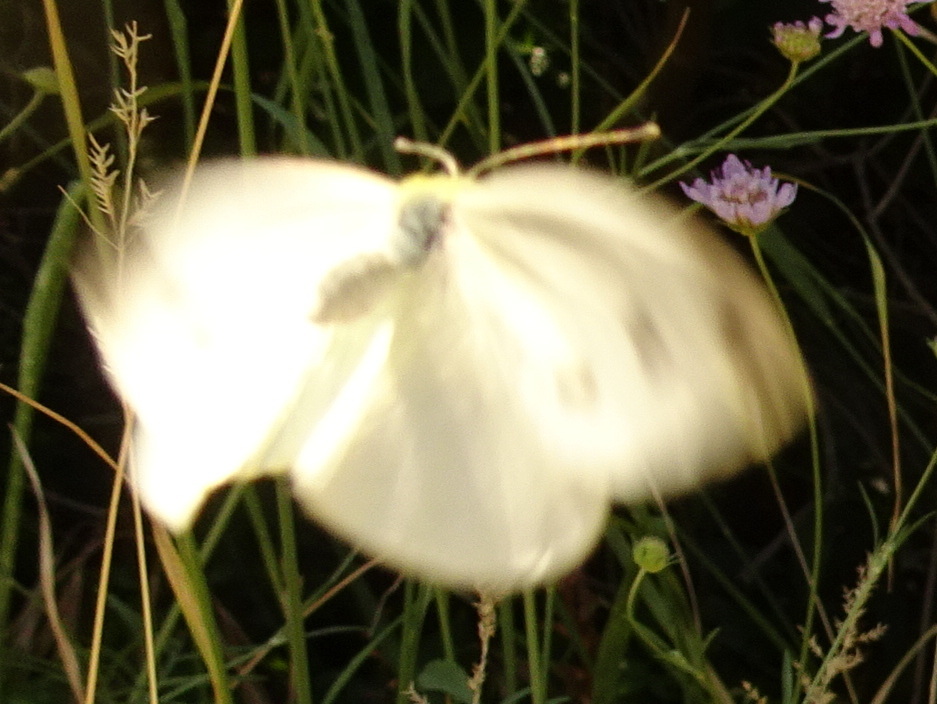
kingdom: Animalia
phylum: Arthropoda
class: Insecta
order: Lepidoptera
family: Pieridae
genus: Pieris
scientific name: Pieris
